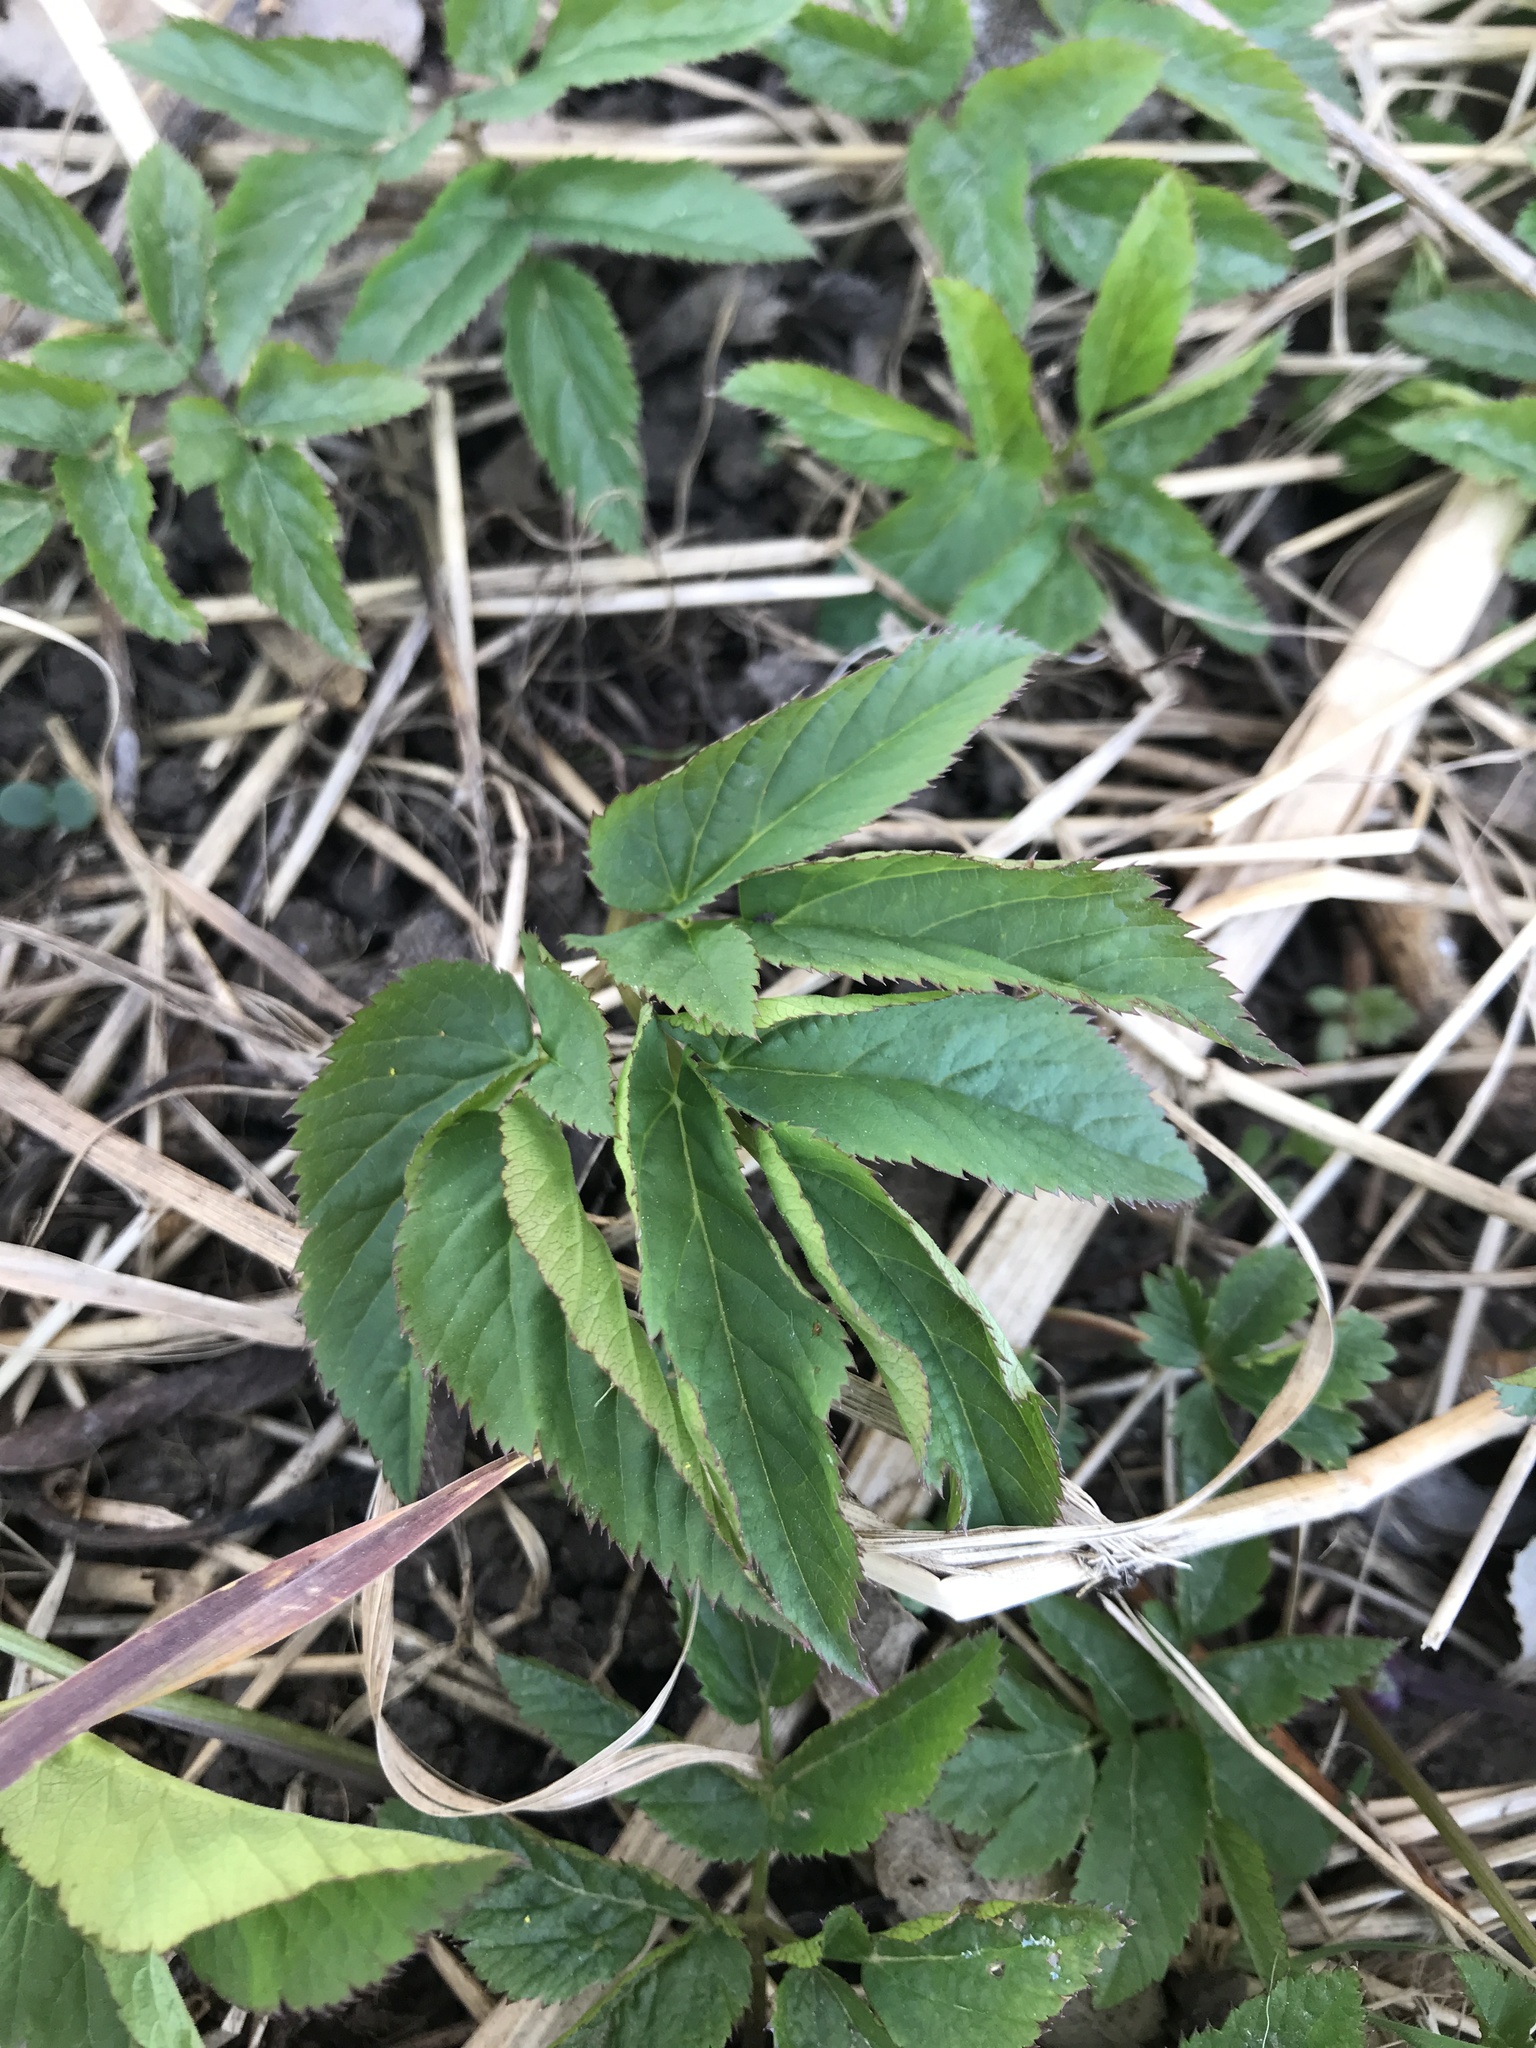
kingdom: Plantae
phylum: Tracheophyta
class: Magnoliopsida
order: Apiales
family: Apiaceae
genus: Aegopodium
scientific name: Aegopodium podagraria
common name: Ground-elder
